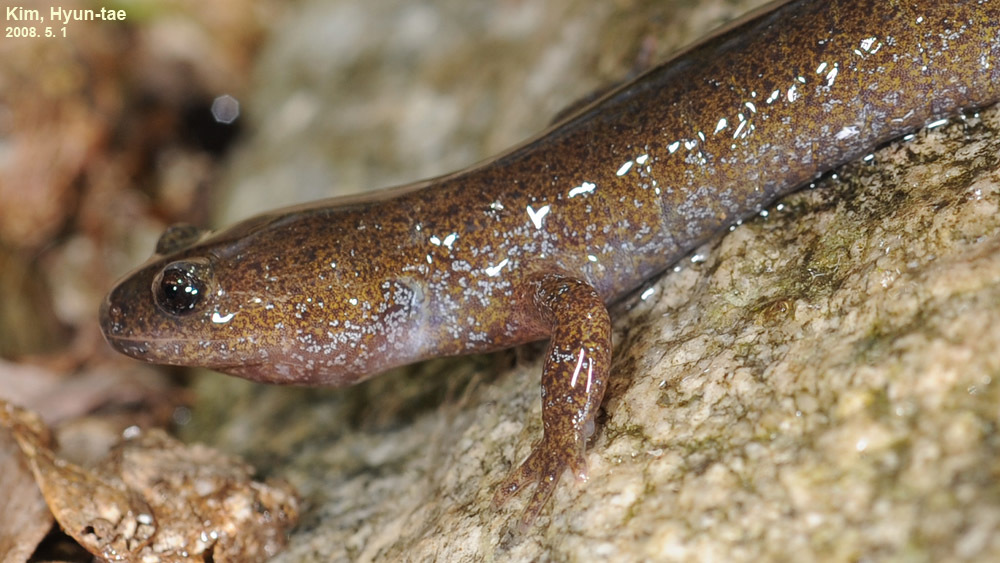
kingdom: Animalia
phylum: Chordata
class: Amphibia
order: Caudata
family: Hynobiidae
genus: Hynobius
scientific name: Hynobius leechii
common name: Gensan salamander
